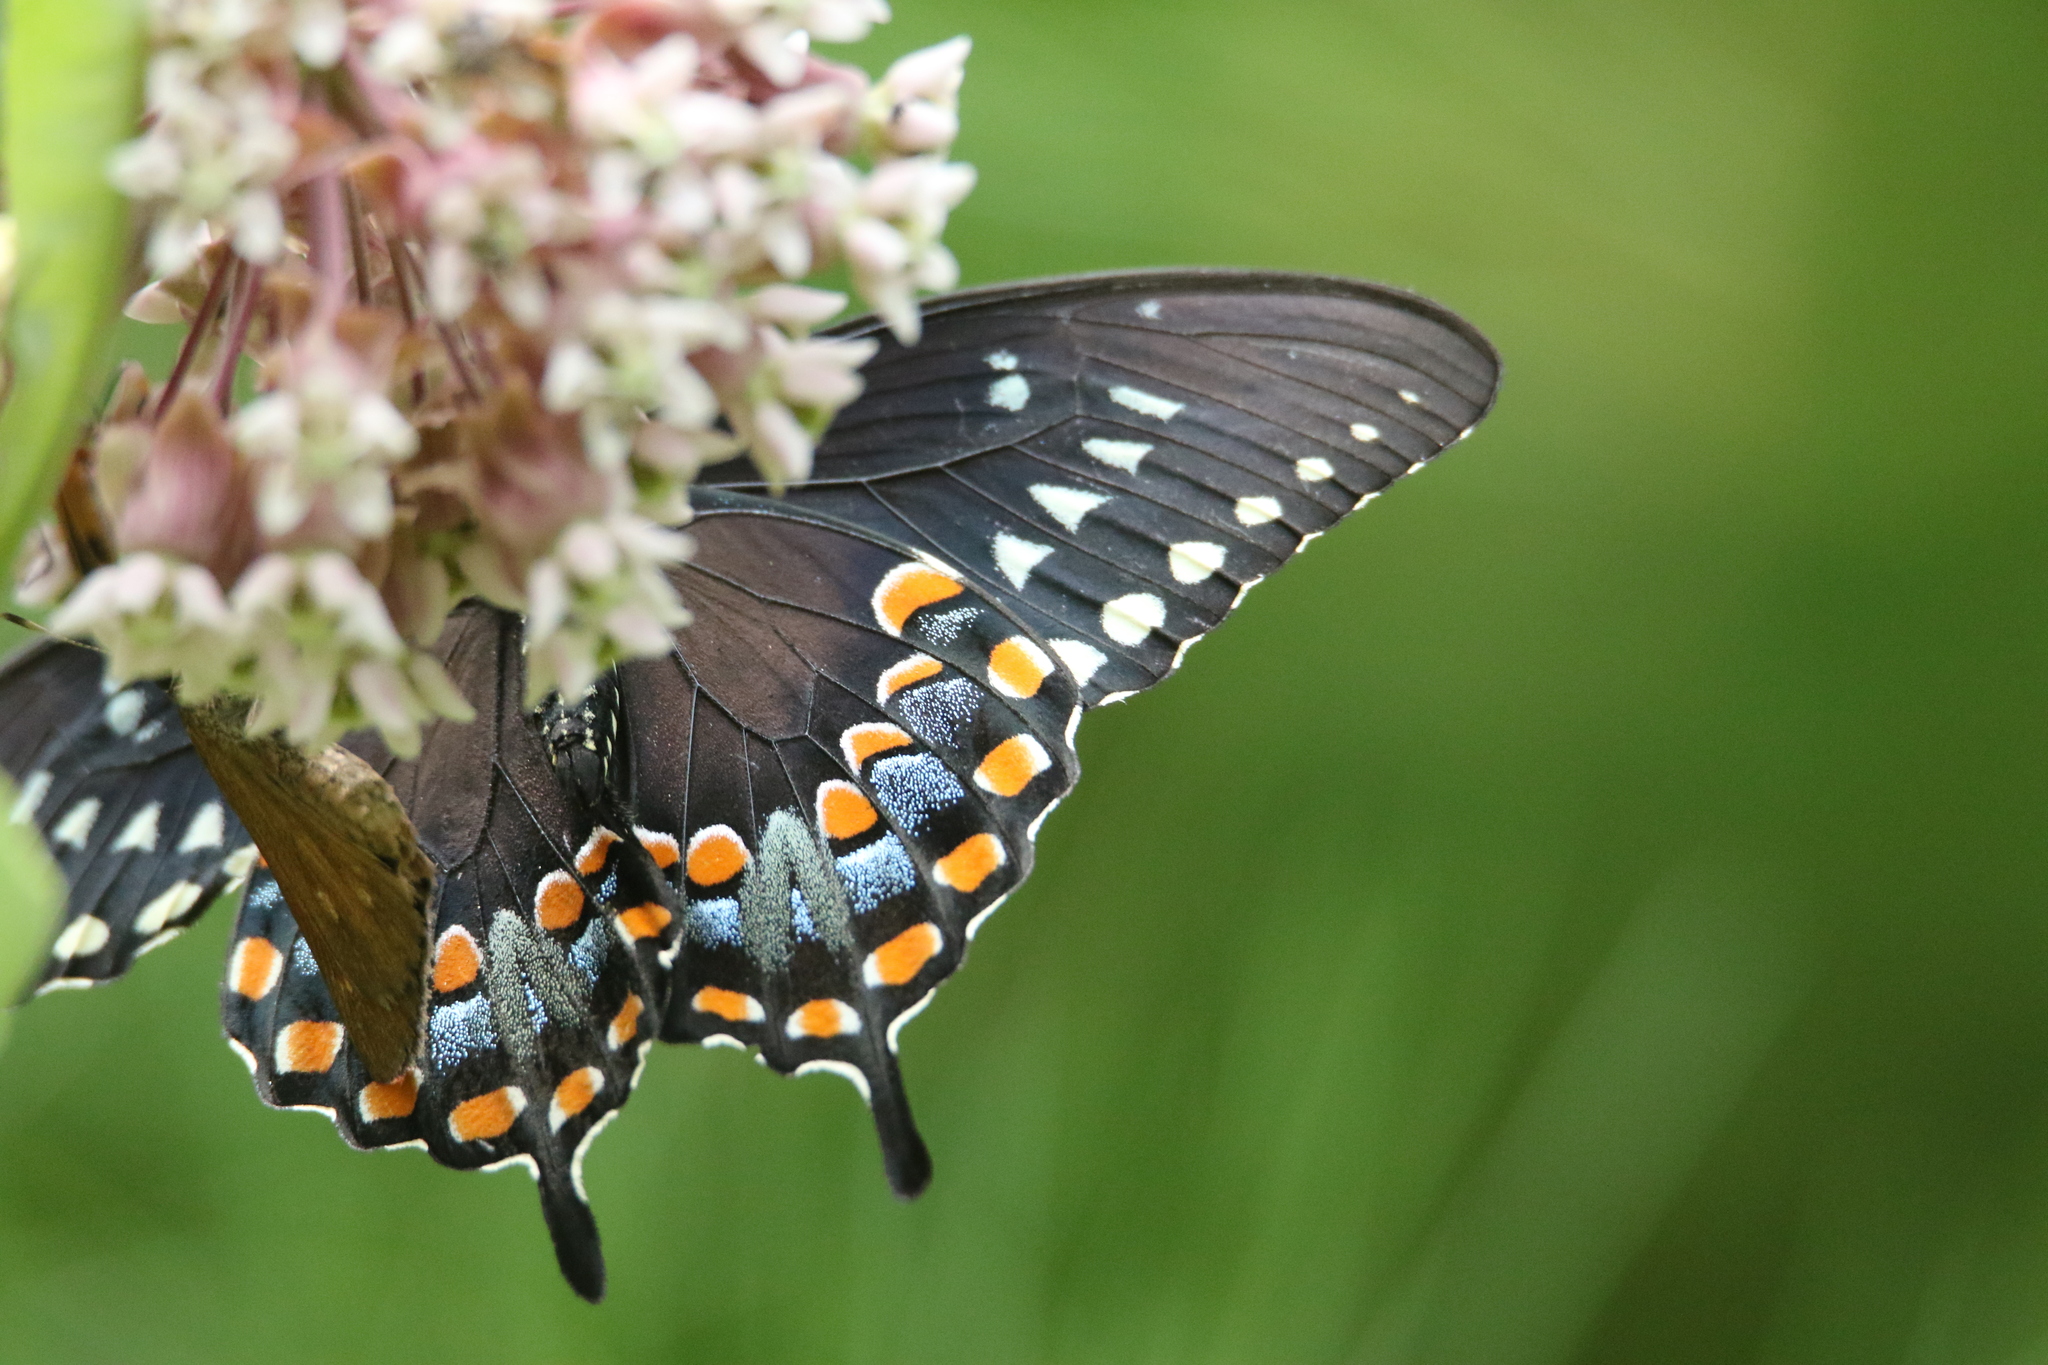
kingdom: Animalia
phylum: Arthropoda
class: Insecta
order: Lepidoptera
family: Papilionidae
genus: Papilio
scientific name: Papilio troilus
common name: Spicebush swallowtail
